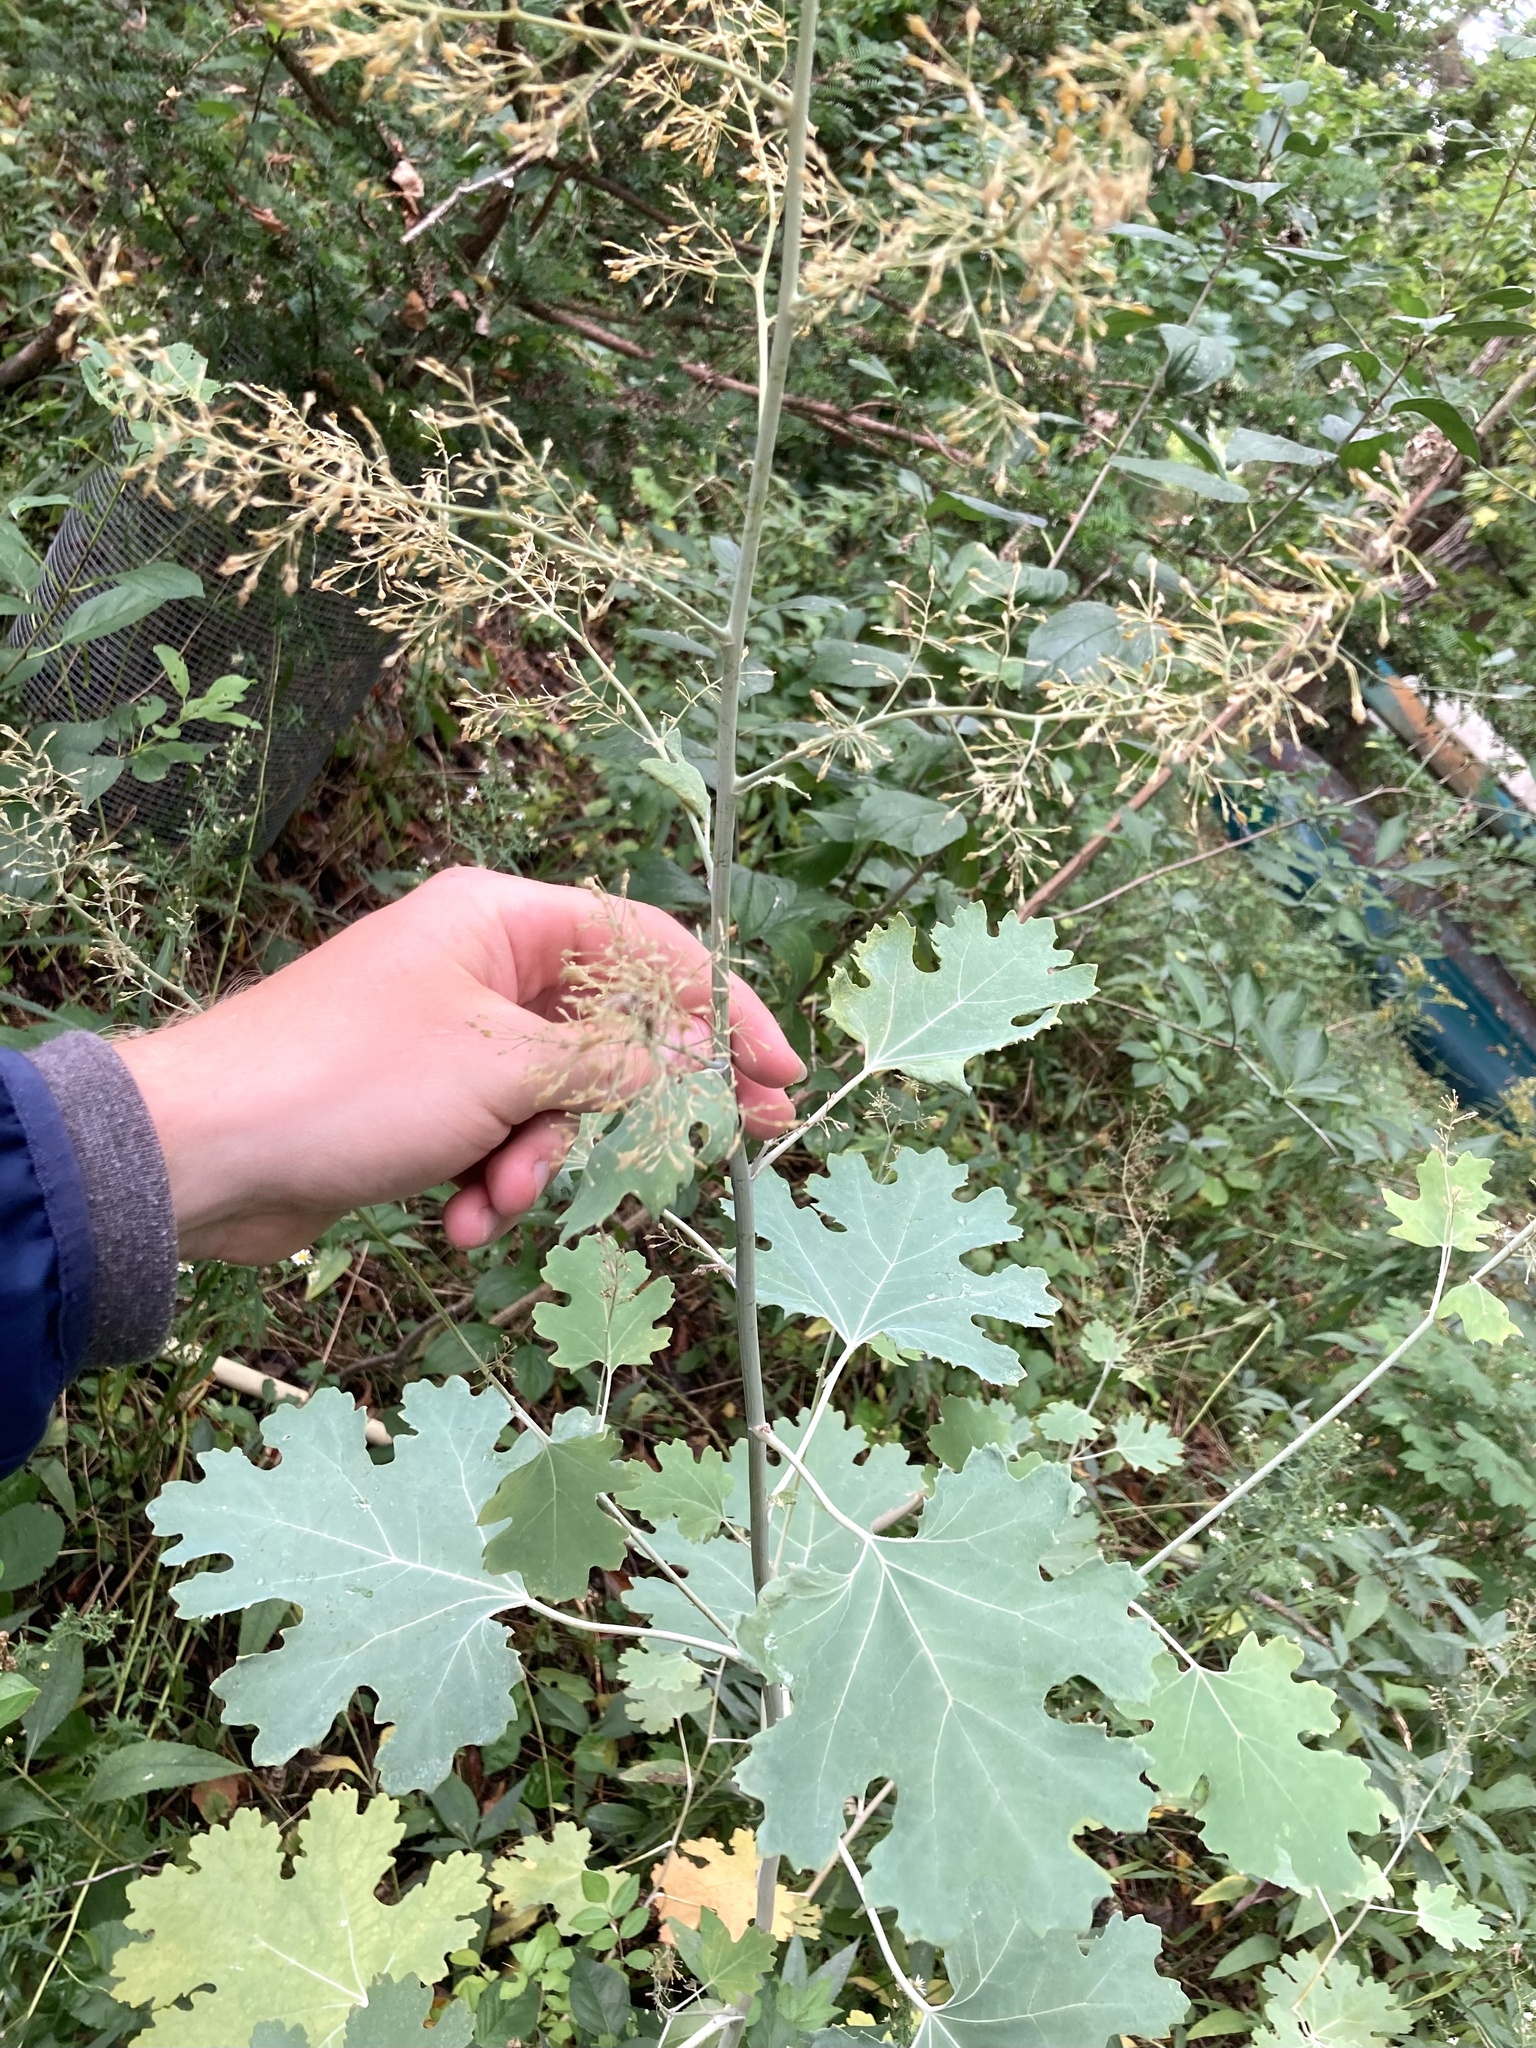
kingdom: Plantae
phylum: Tracheophyta
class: Magnoliopsida
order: Ranunculales
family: Papaveraceae
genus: Macleaya
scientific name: Macleaya cordata
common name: Plume poppy
